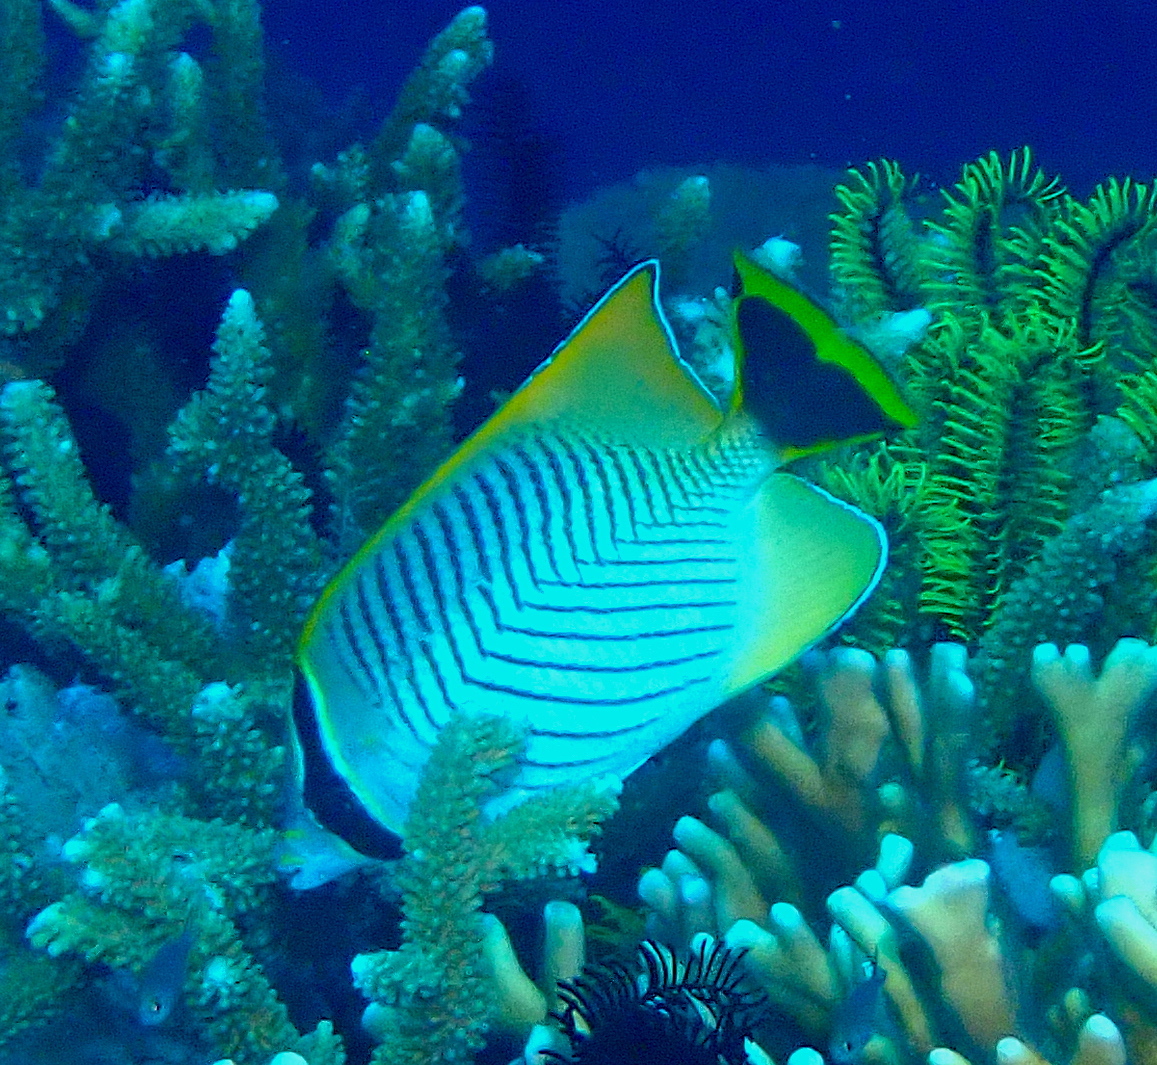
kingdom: Animalia
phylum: Chordata
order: Perciformes
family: Chaetodontidae
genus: Chaetodon
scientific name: Chaetodon trifascialis
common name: Chevroned butterflyfish
